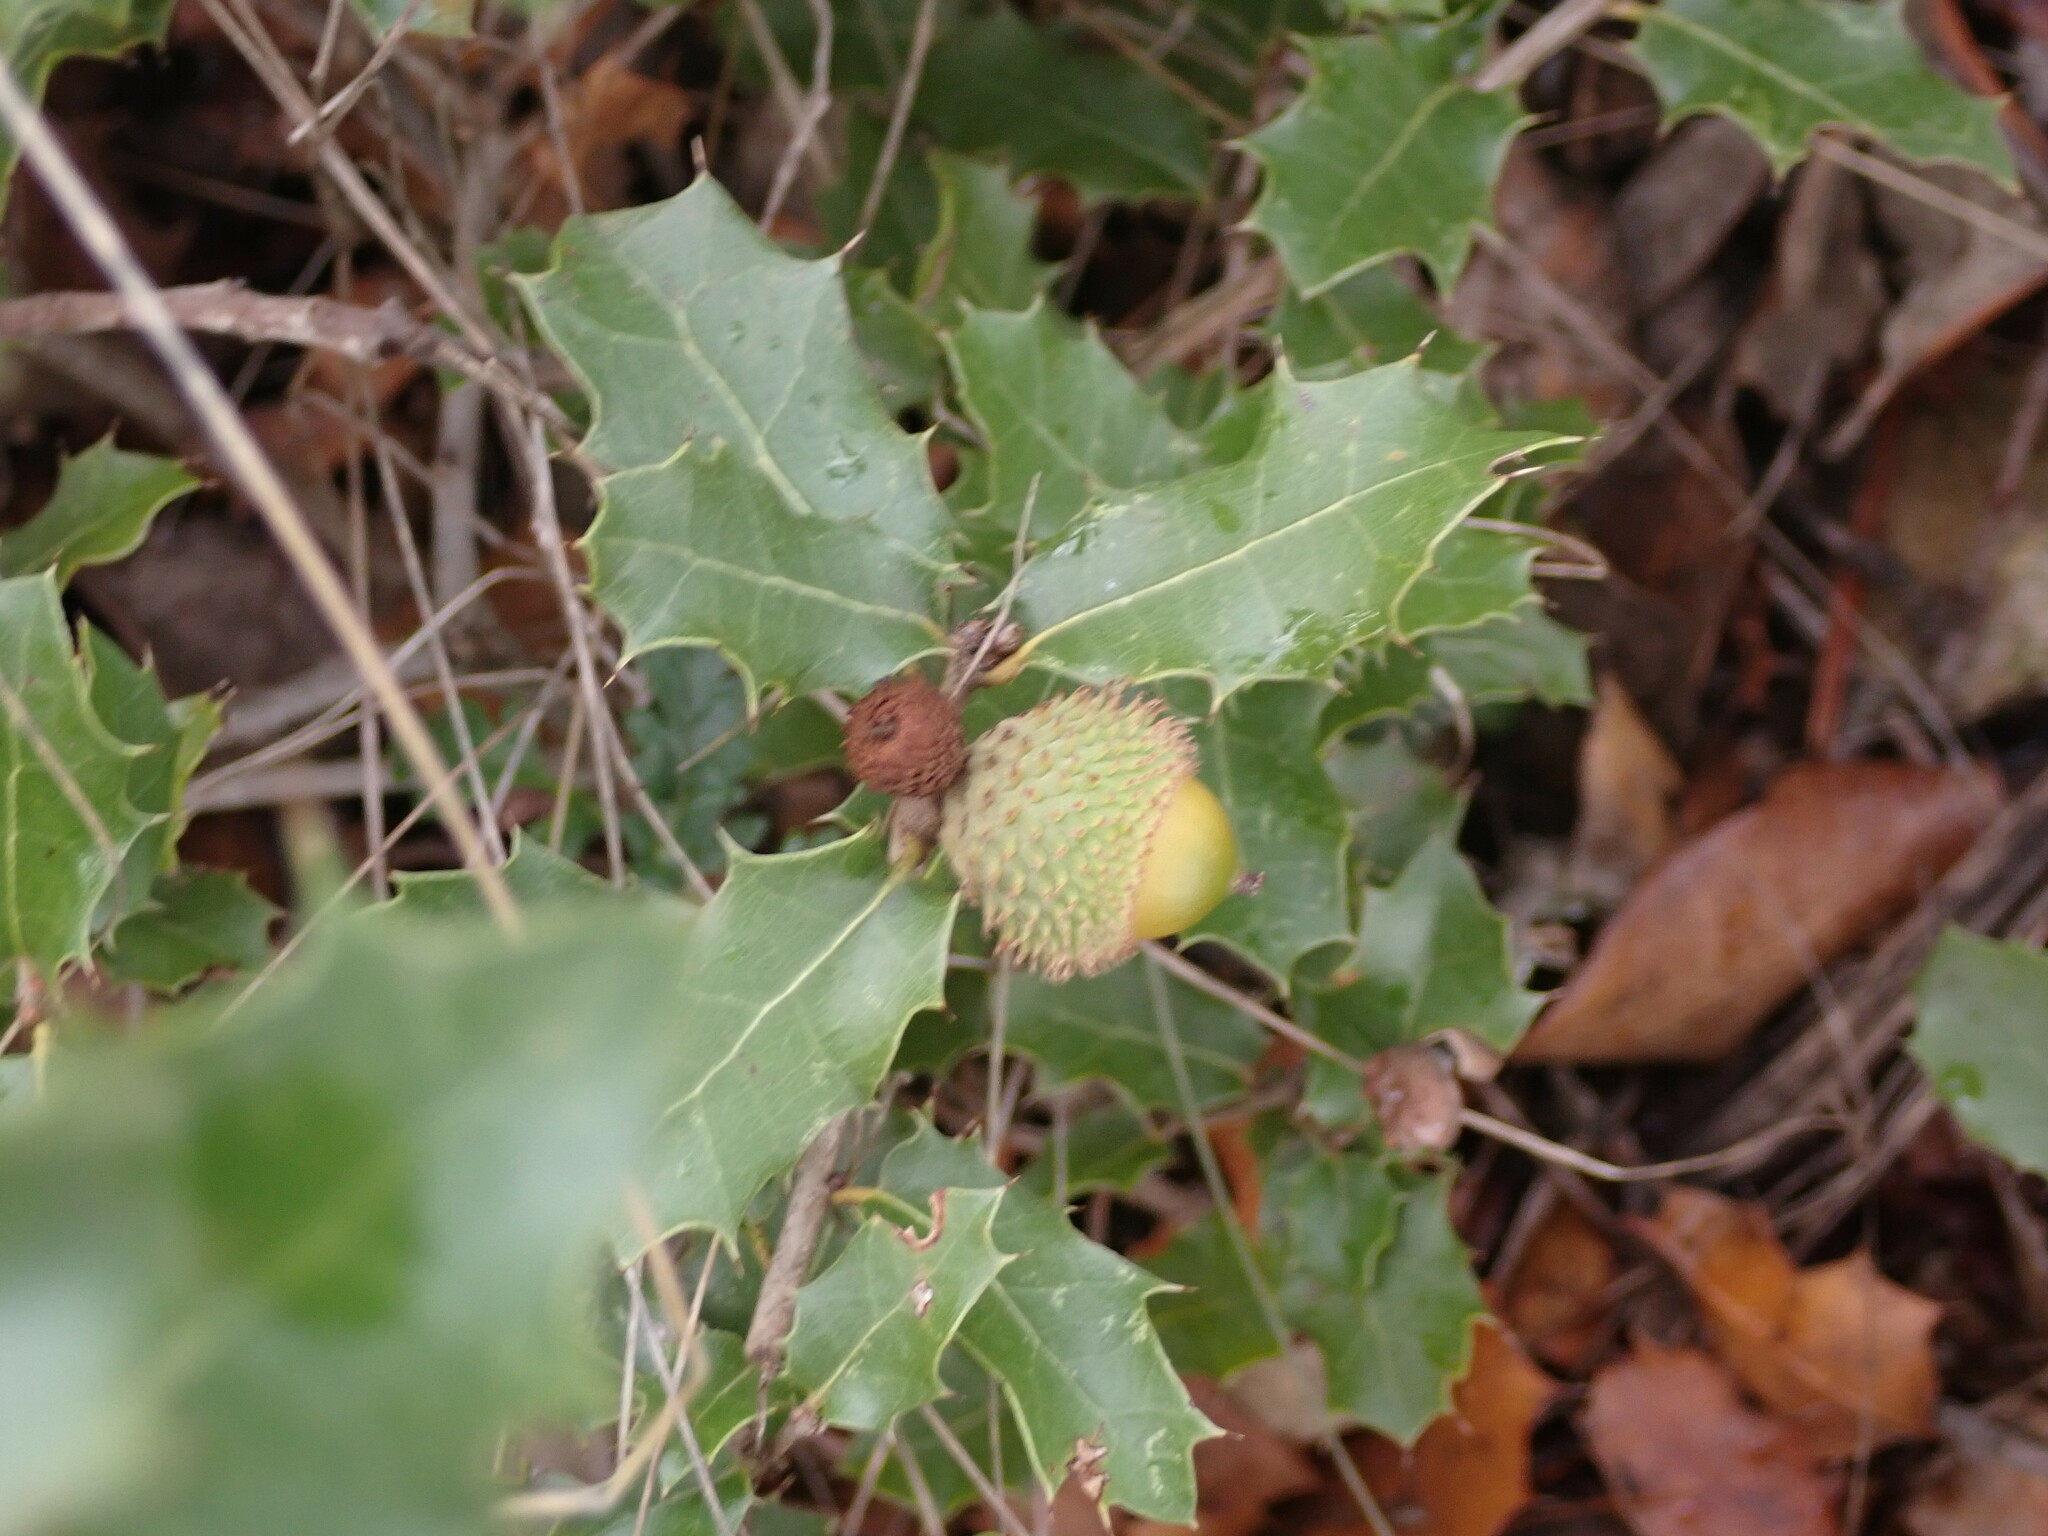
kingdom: Plantae
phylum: Tracheophyta
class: Magnoliopsida
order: Fagales
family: Fagaceae
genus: Quercus
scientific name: Quercus coccifera
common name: Kermes oak
